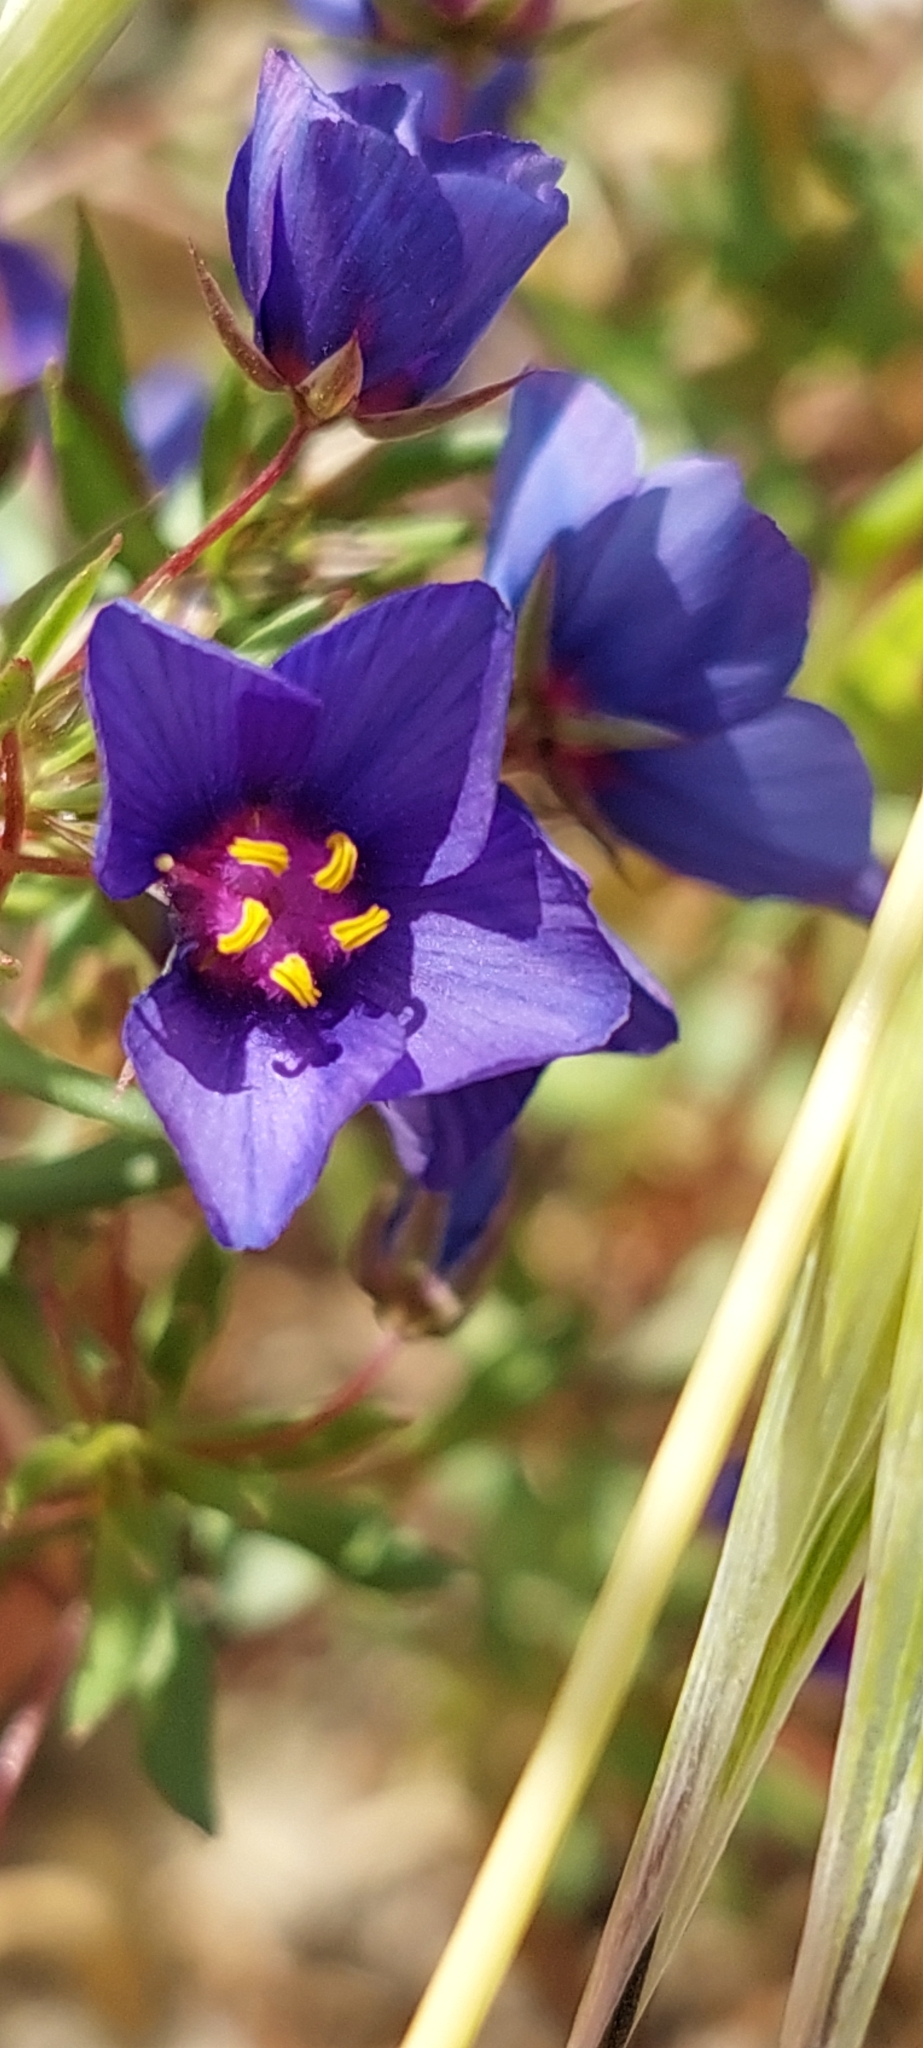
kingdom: Plantae
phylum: Tracheophyta
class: Magnoliopsida
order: Ericales
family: Primulaceae
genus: Lysimachia
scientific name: Lysimachia monelli
